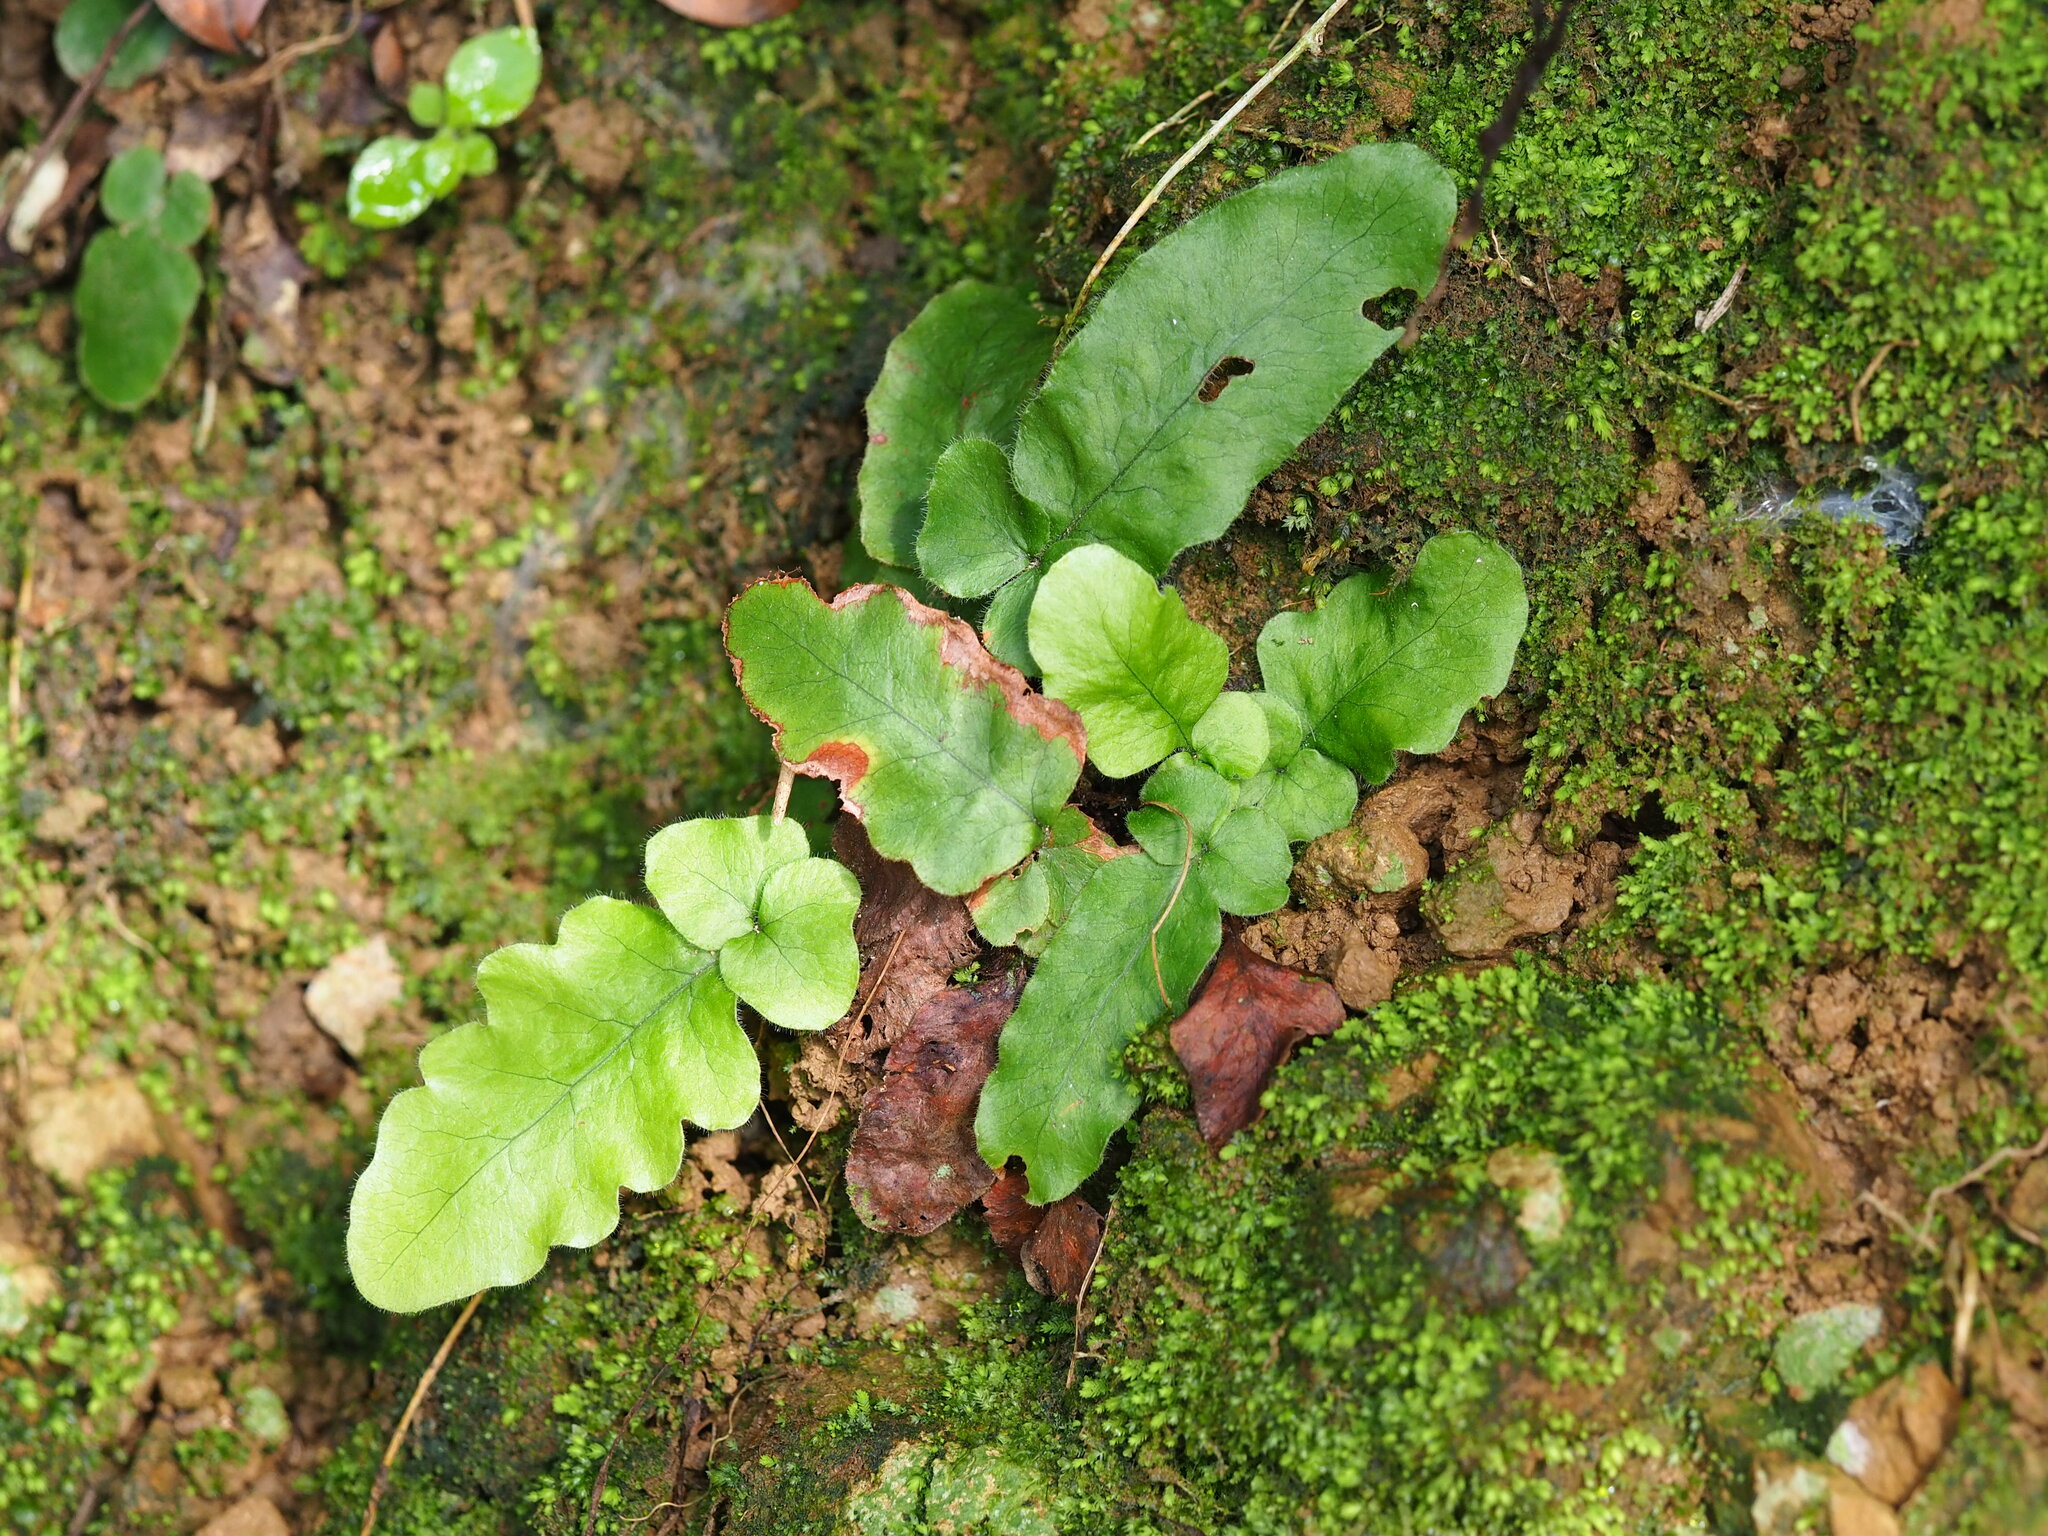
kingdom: Plantae
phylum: Tracheophyta
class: Polypodiopsida
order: Polypodiales
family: Tectariaceae
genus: Tectaria
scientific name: Tectaria zeilanica
